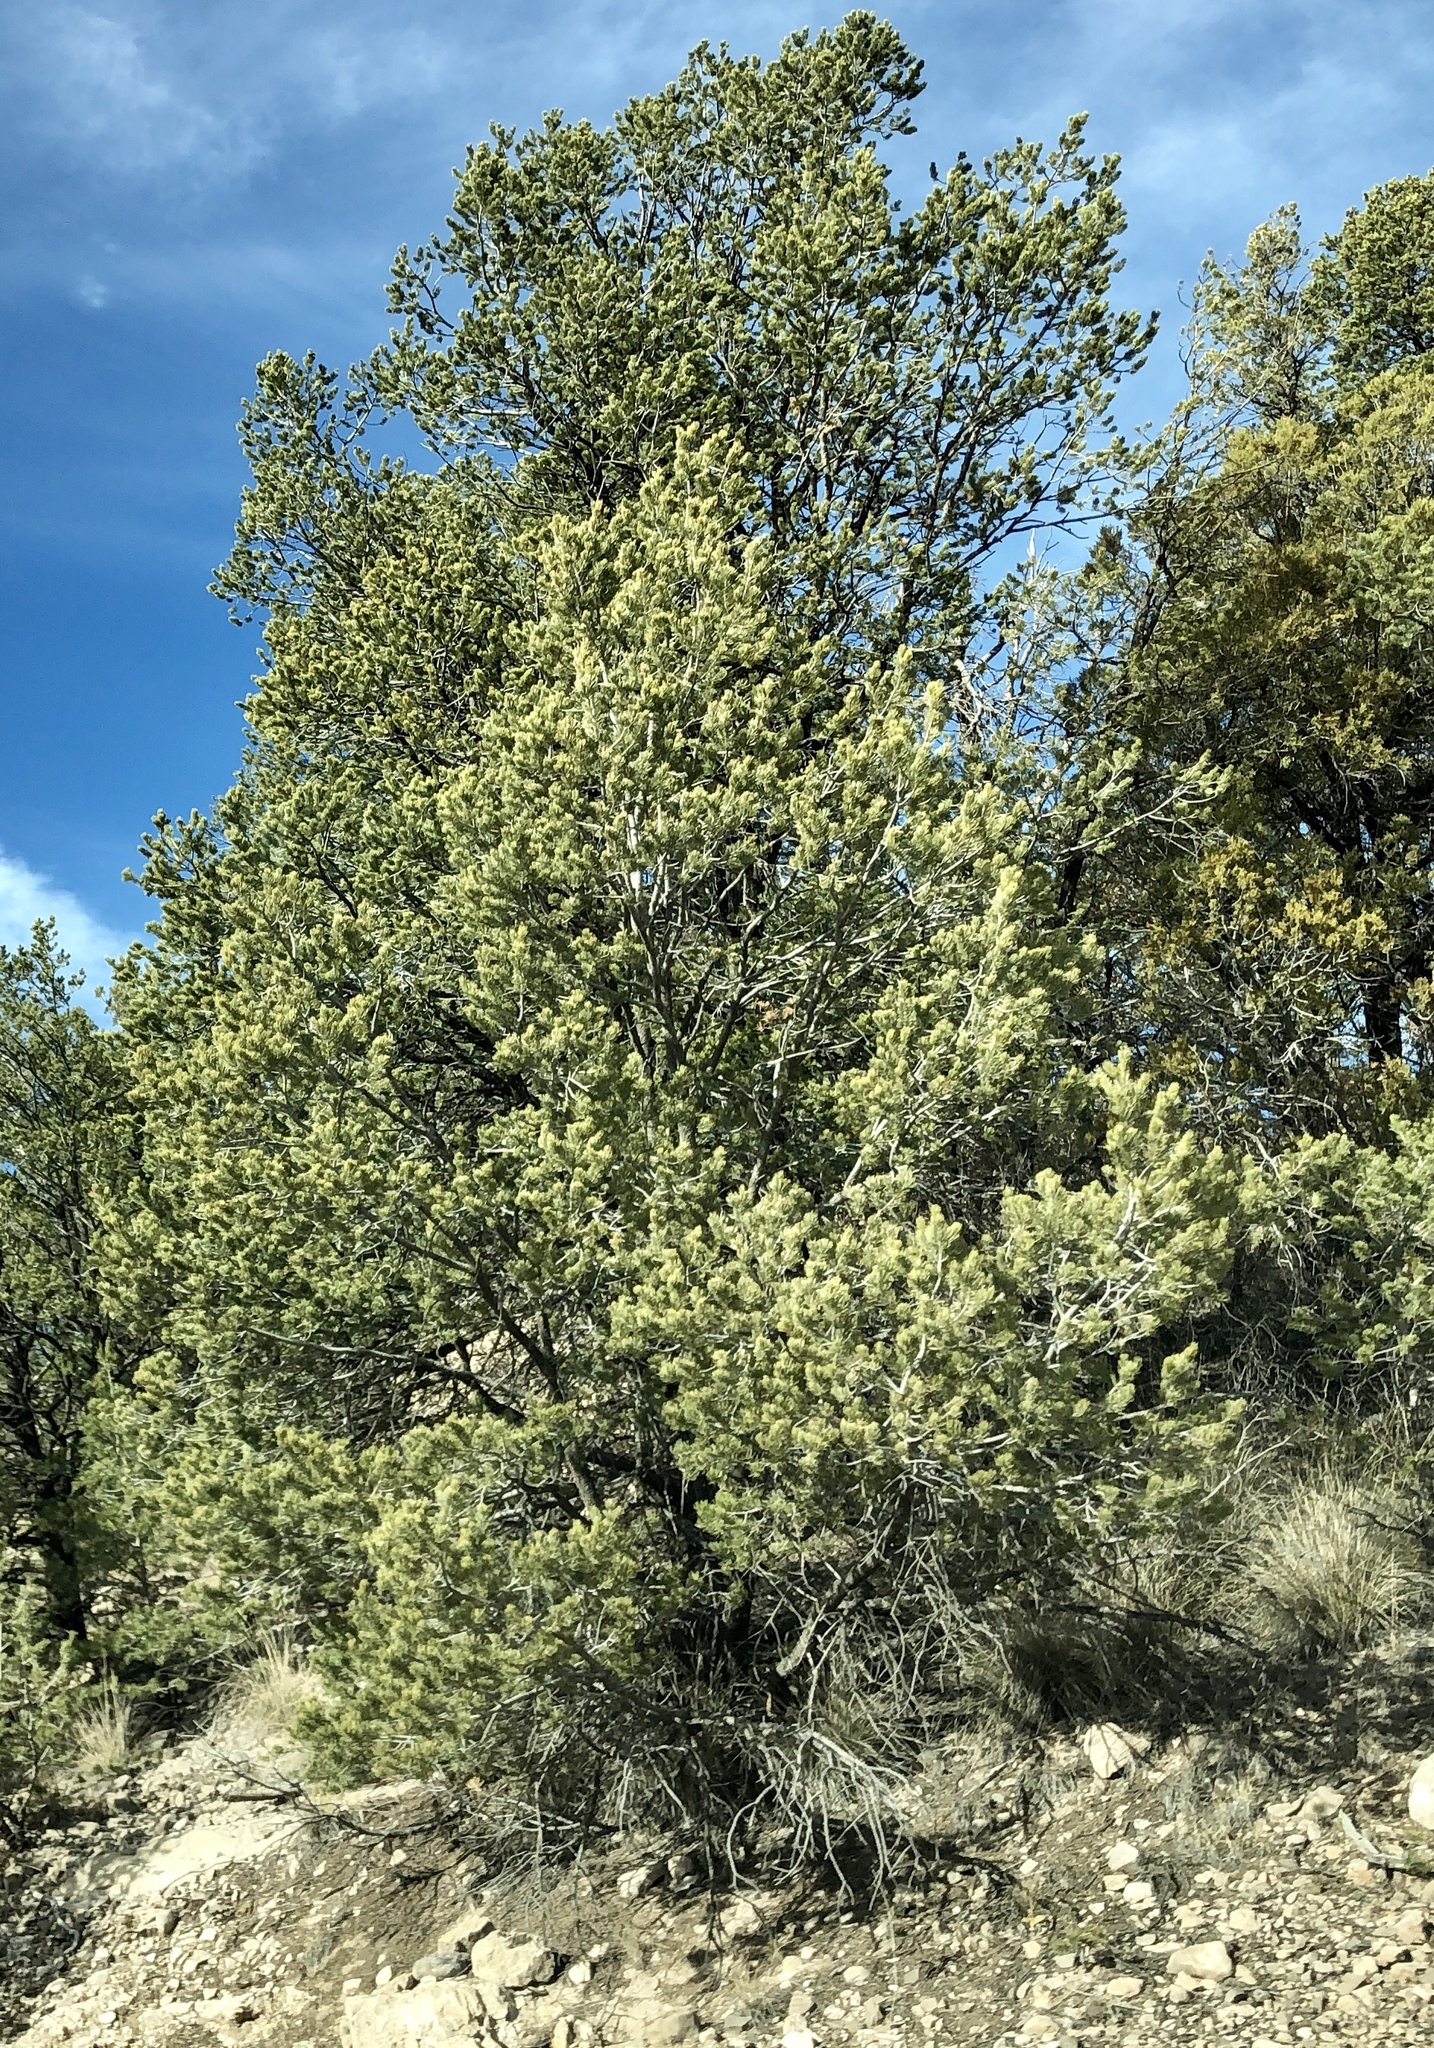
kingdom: Plantae
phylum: Tracheophyta
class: Pinopsida
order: Pinales
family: Pinaceae
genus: Pinus
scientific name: Pinus edulis
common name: Colorado pinyon
